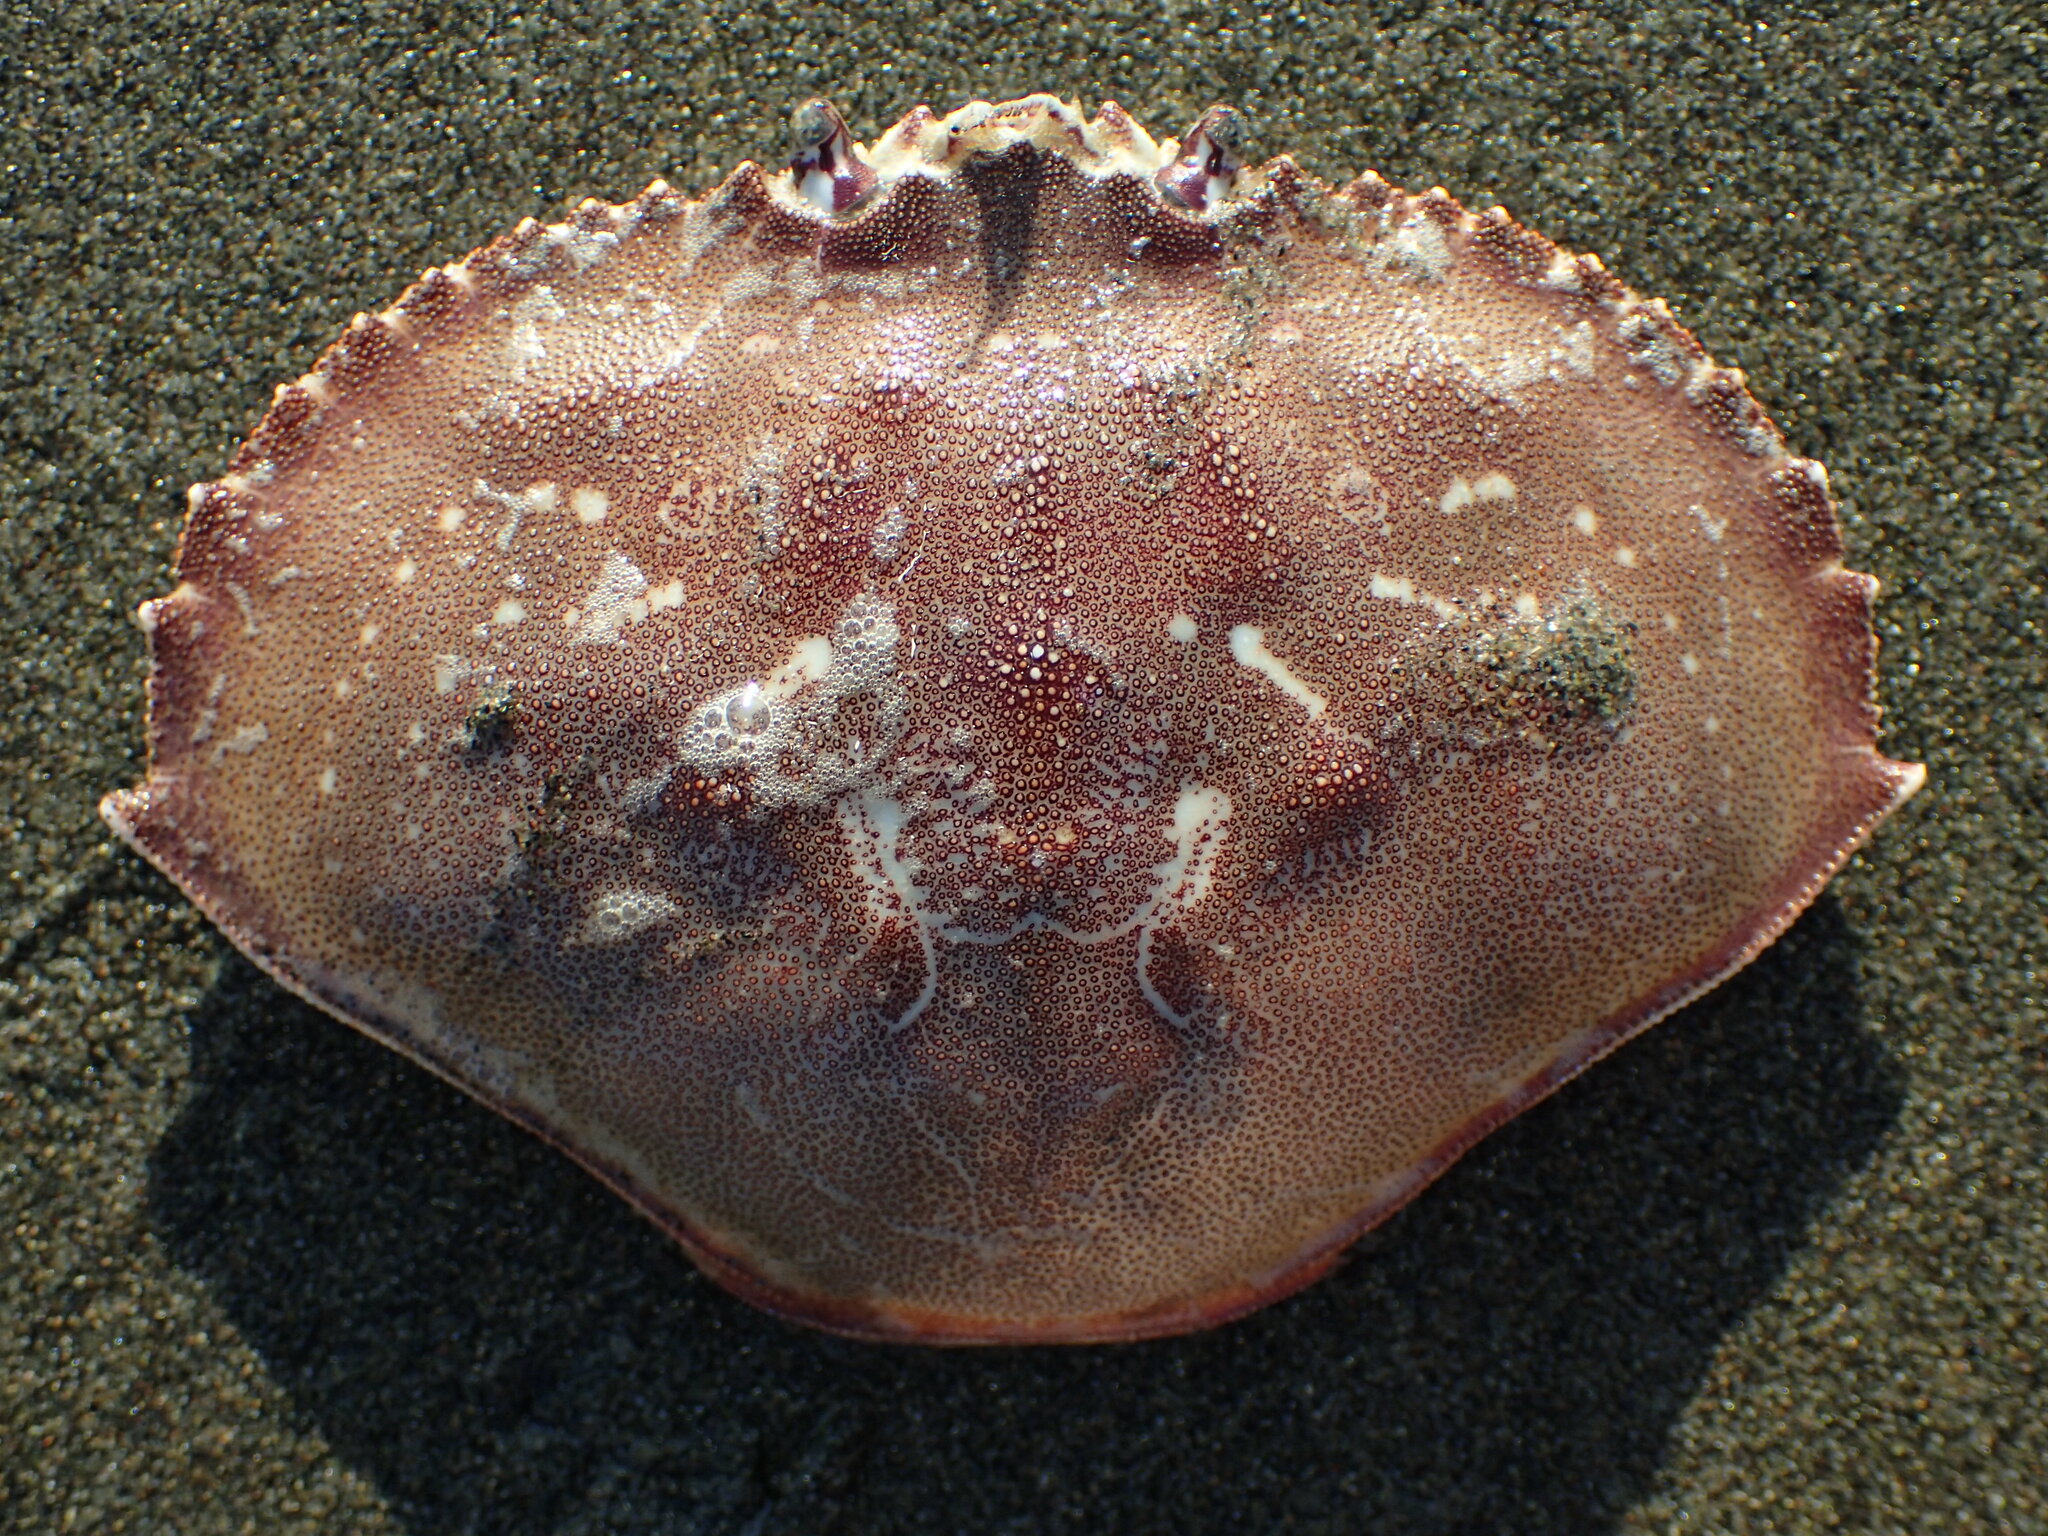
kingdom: Animalia
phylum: Arthropoda
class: Malacostraca
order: Decapoda
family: Cancridae
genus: Metacarcinus
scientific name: Metacarcinus magister
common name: Californian crab
